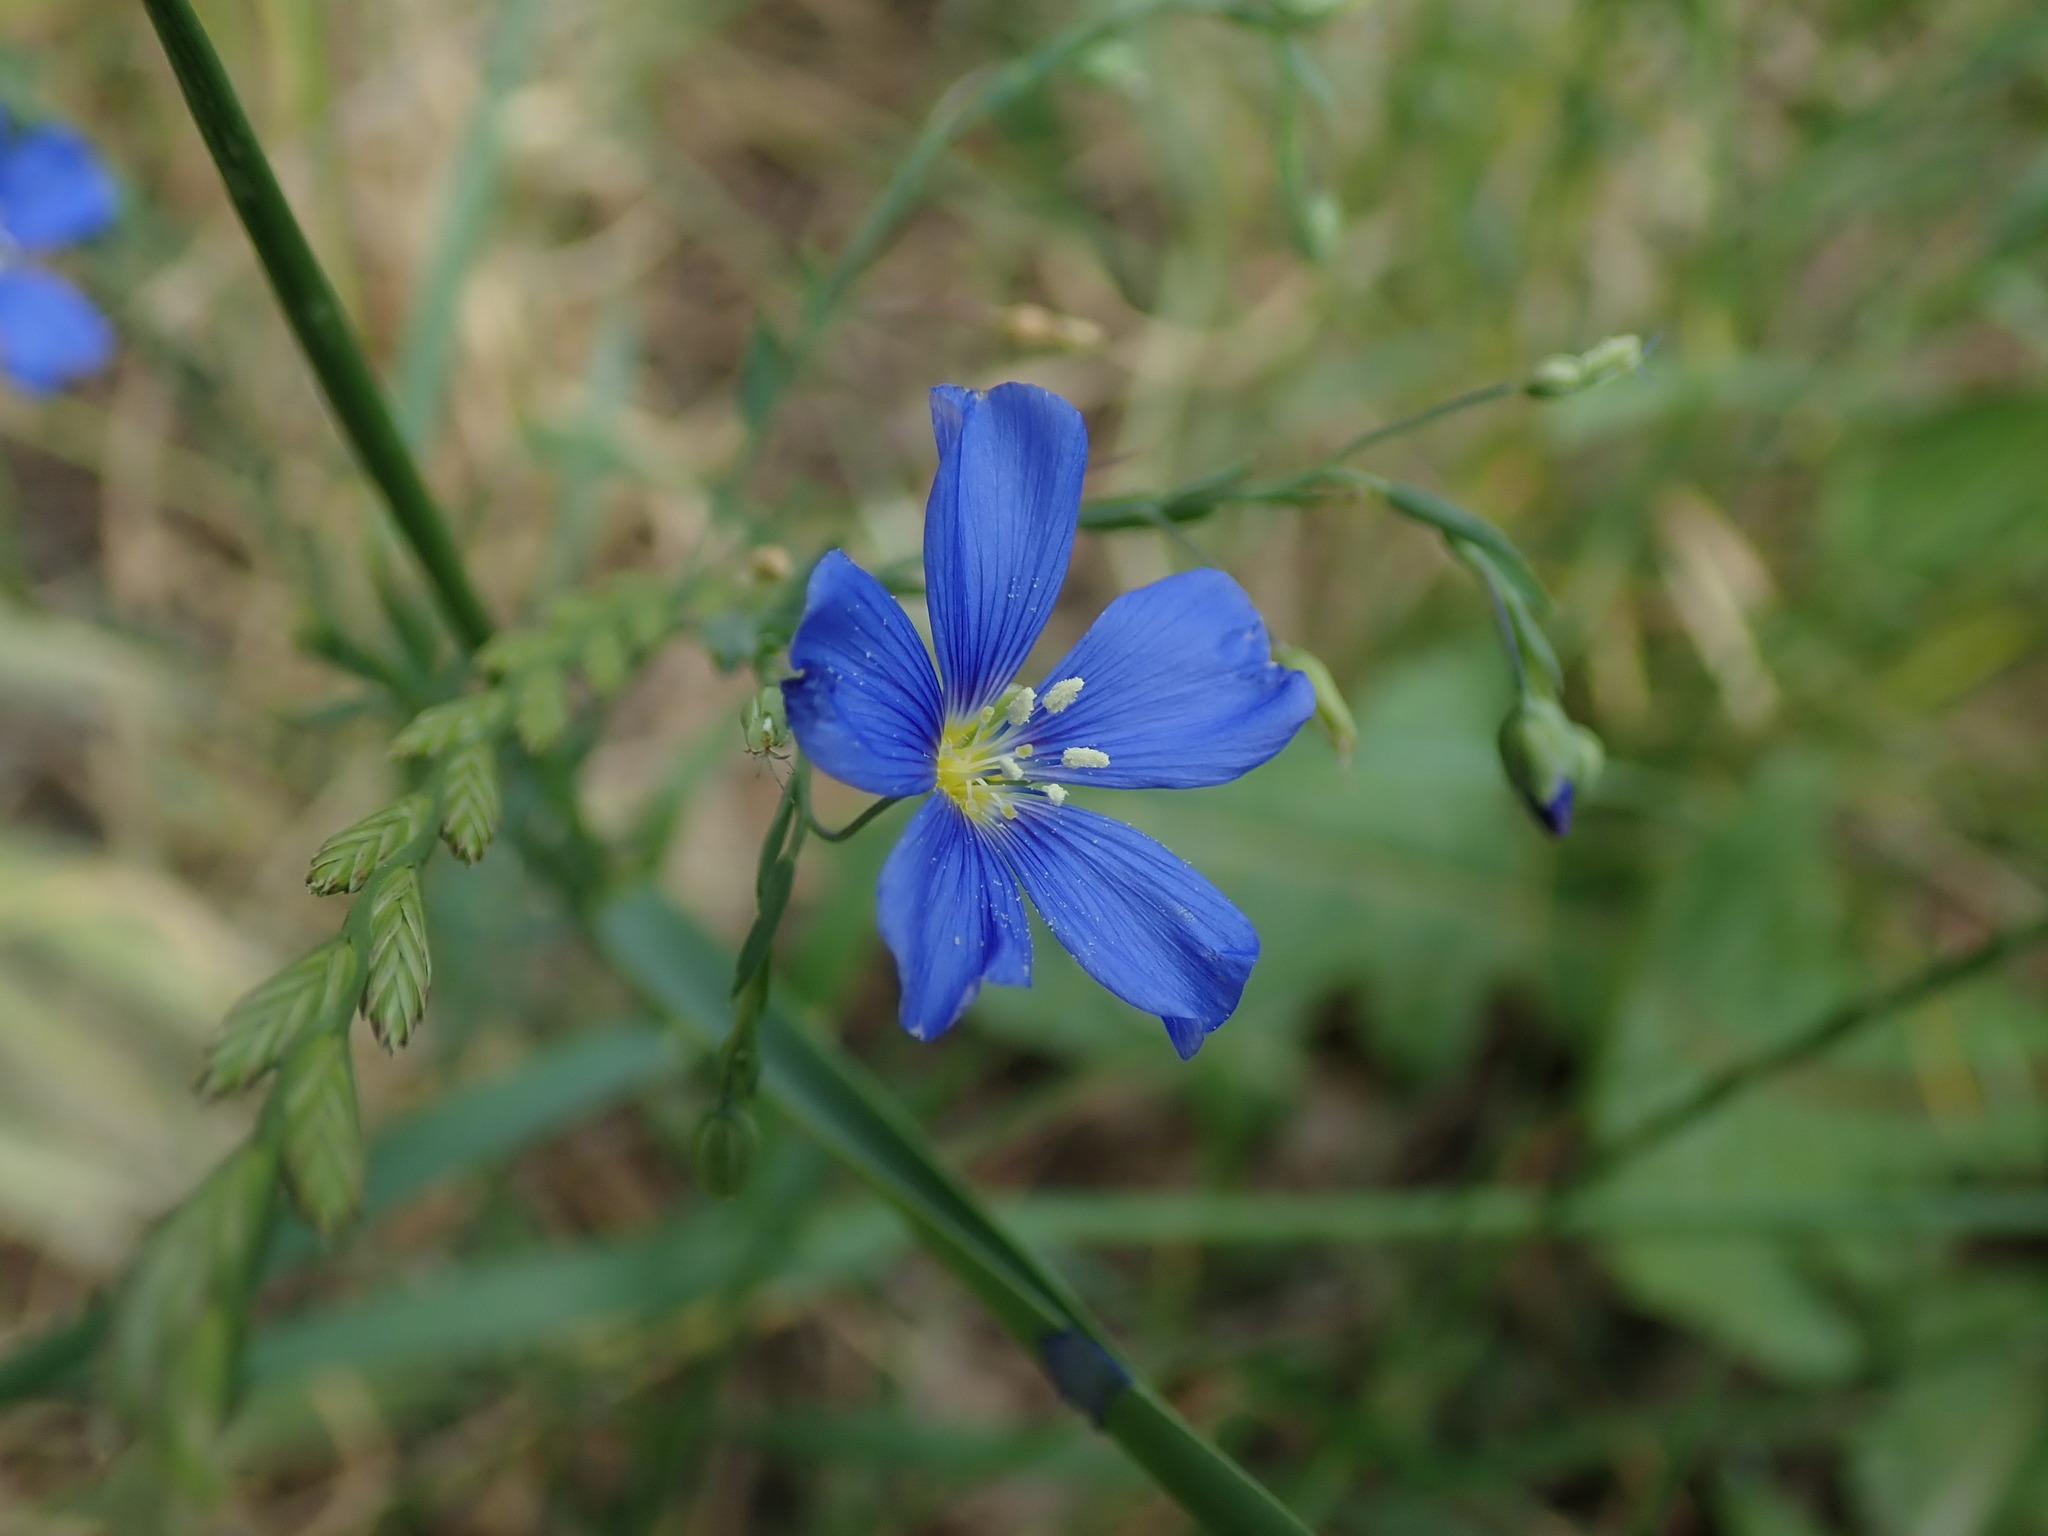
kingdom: Plantae
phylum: Tracheophyta
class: Magnoliopsida
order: Malpighiales
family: Linaceae
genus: Linum
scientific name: Linum perenne
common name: Blue flax
